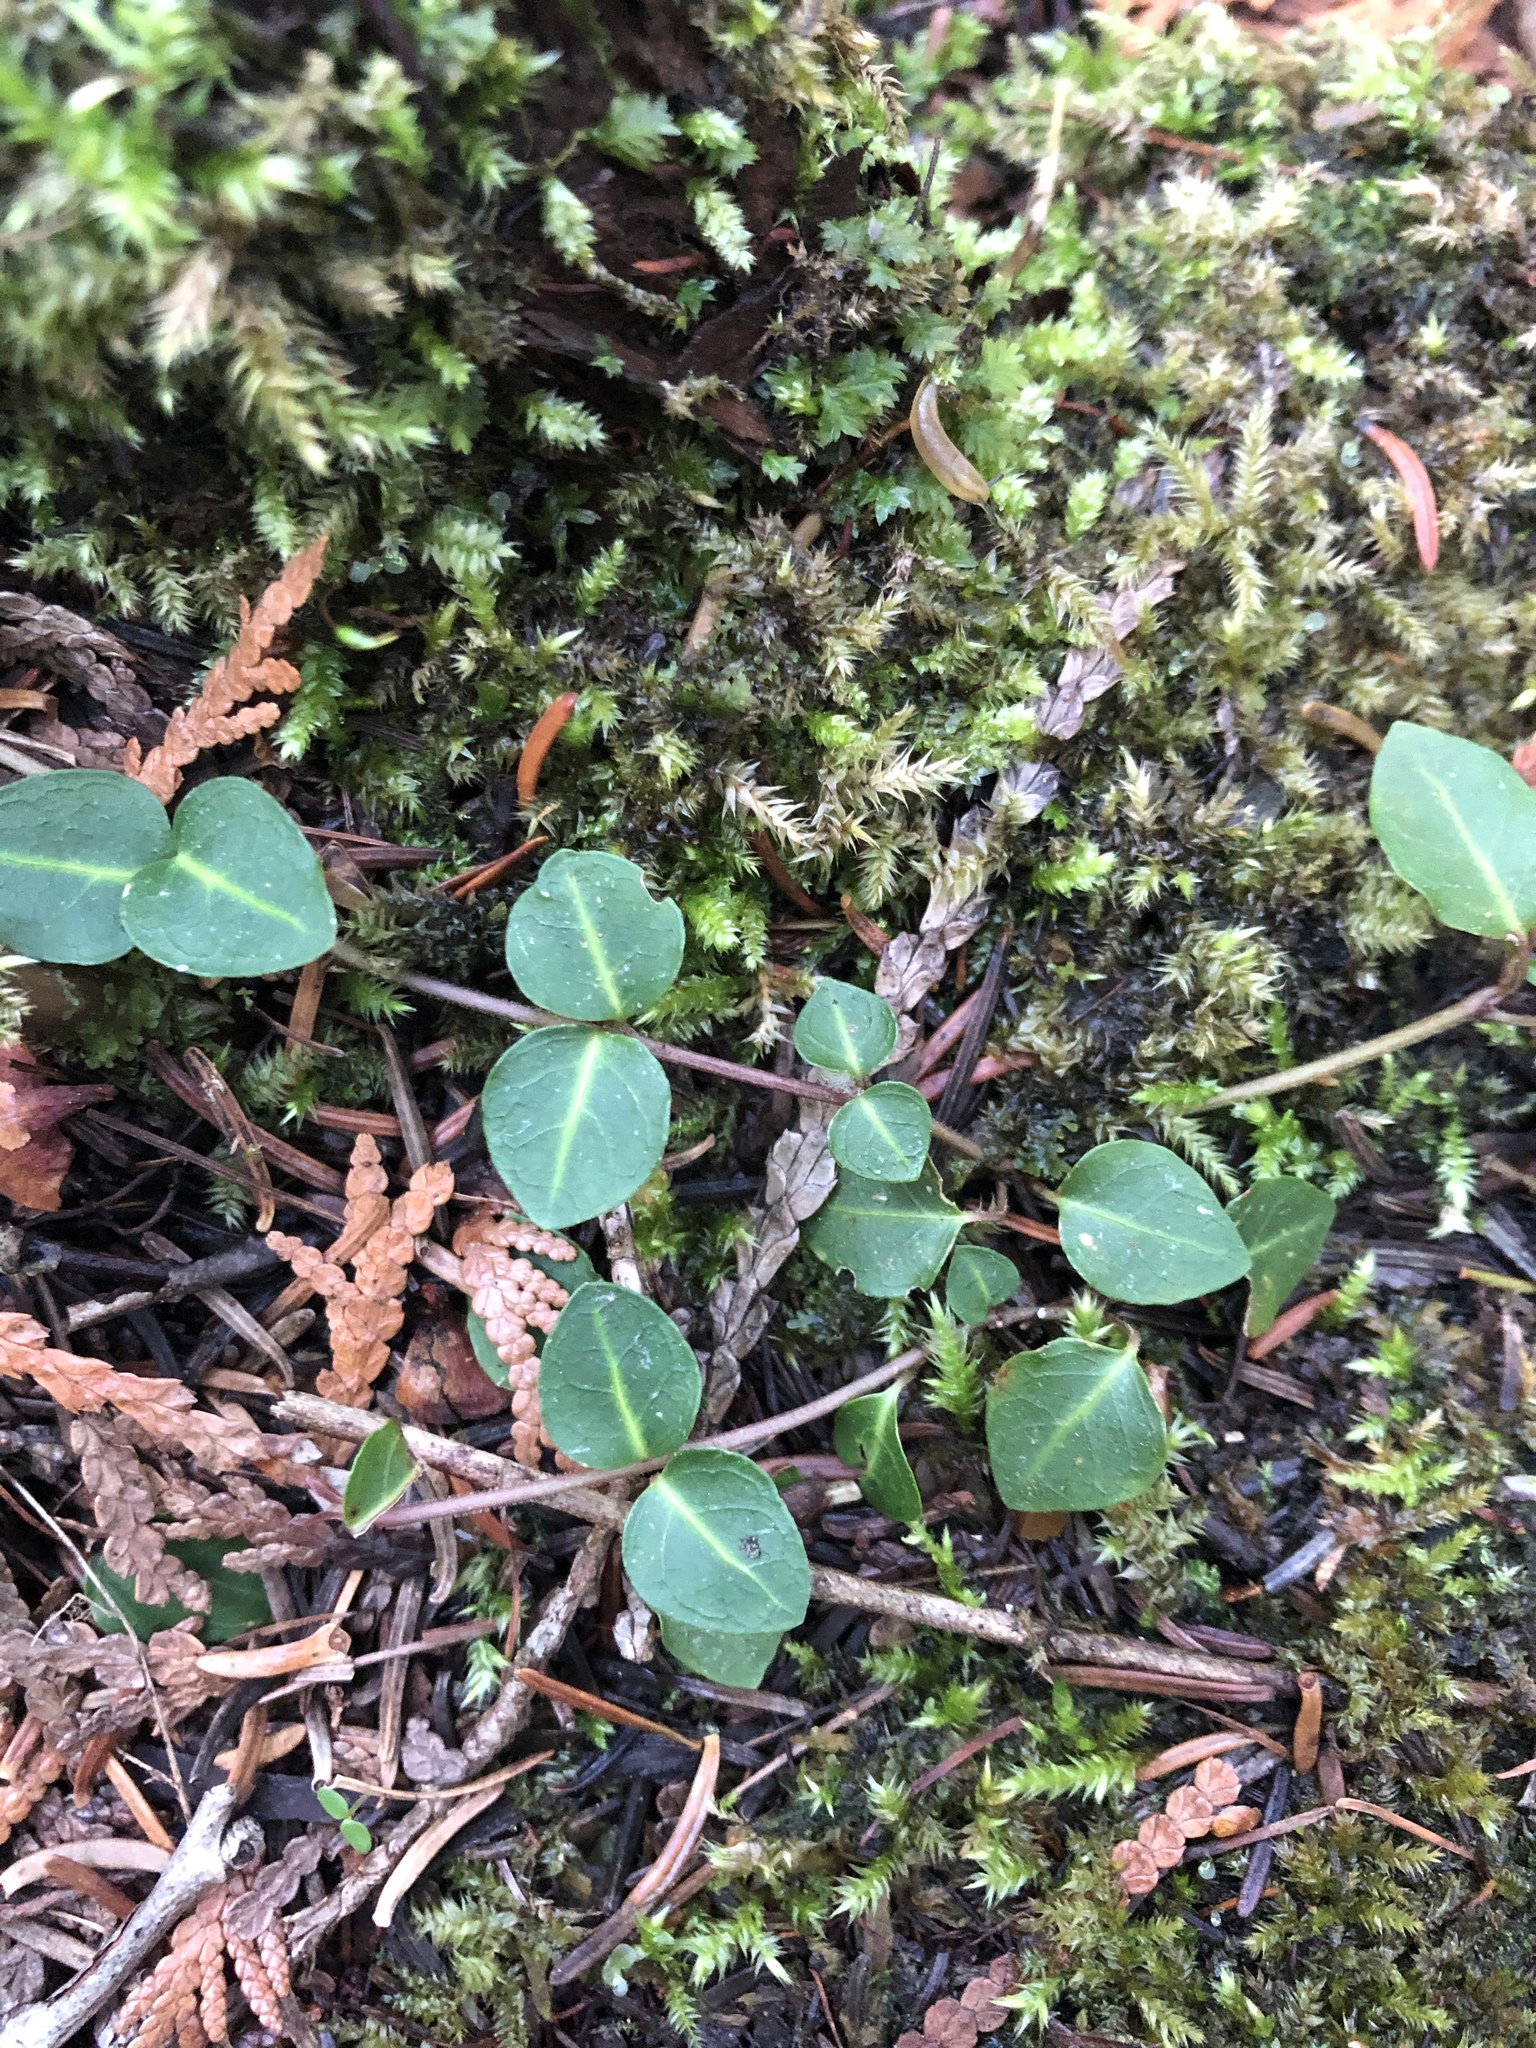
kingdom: Plantae
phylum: Tracheophyta
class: Magnoliopsida
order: Gentianales
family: Rubiaceae
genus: Mitchella
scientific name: Mitchella repens
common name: Partridge-berry
